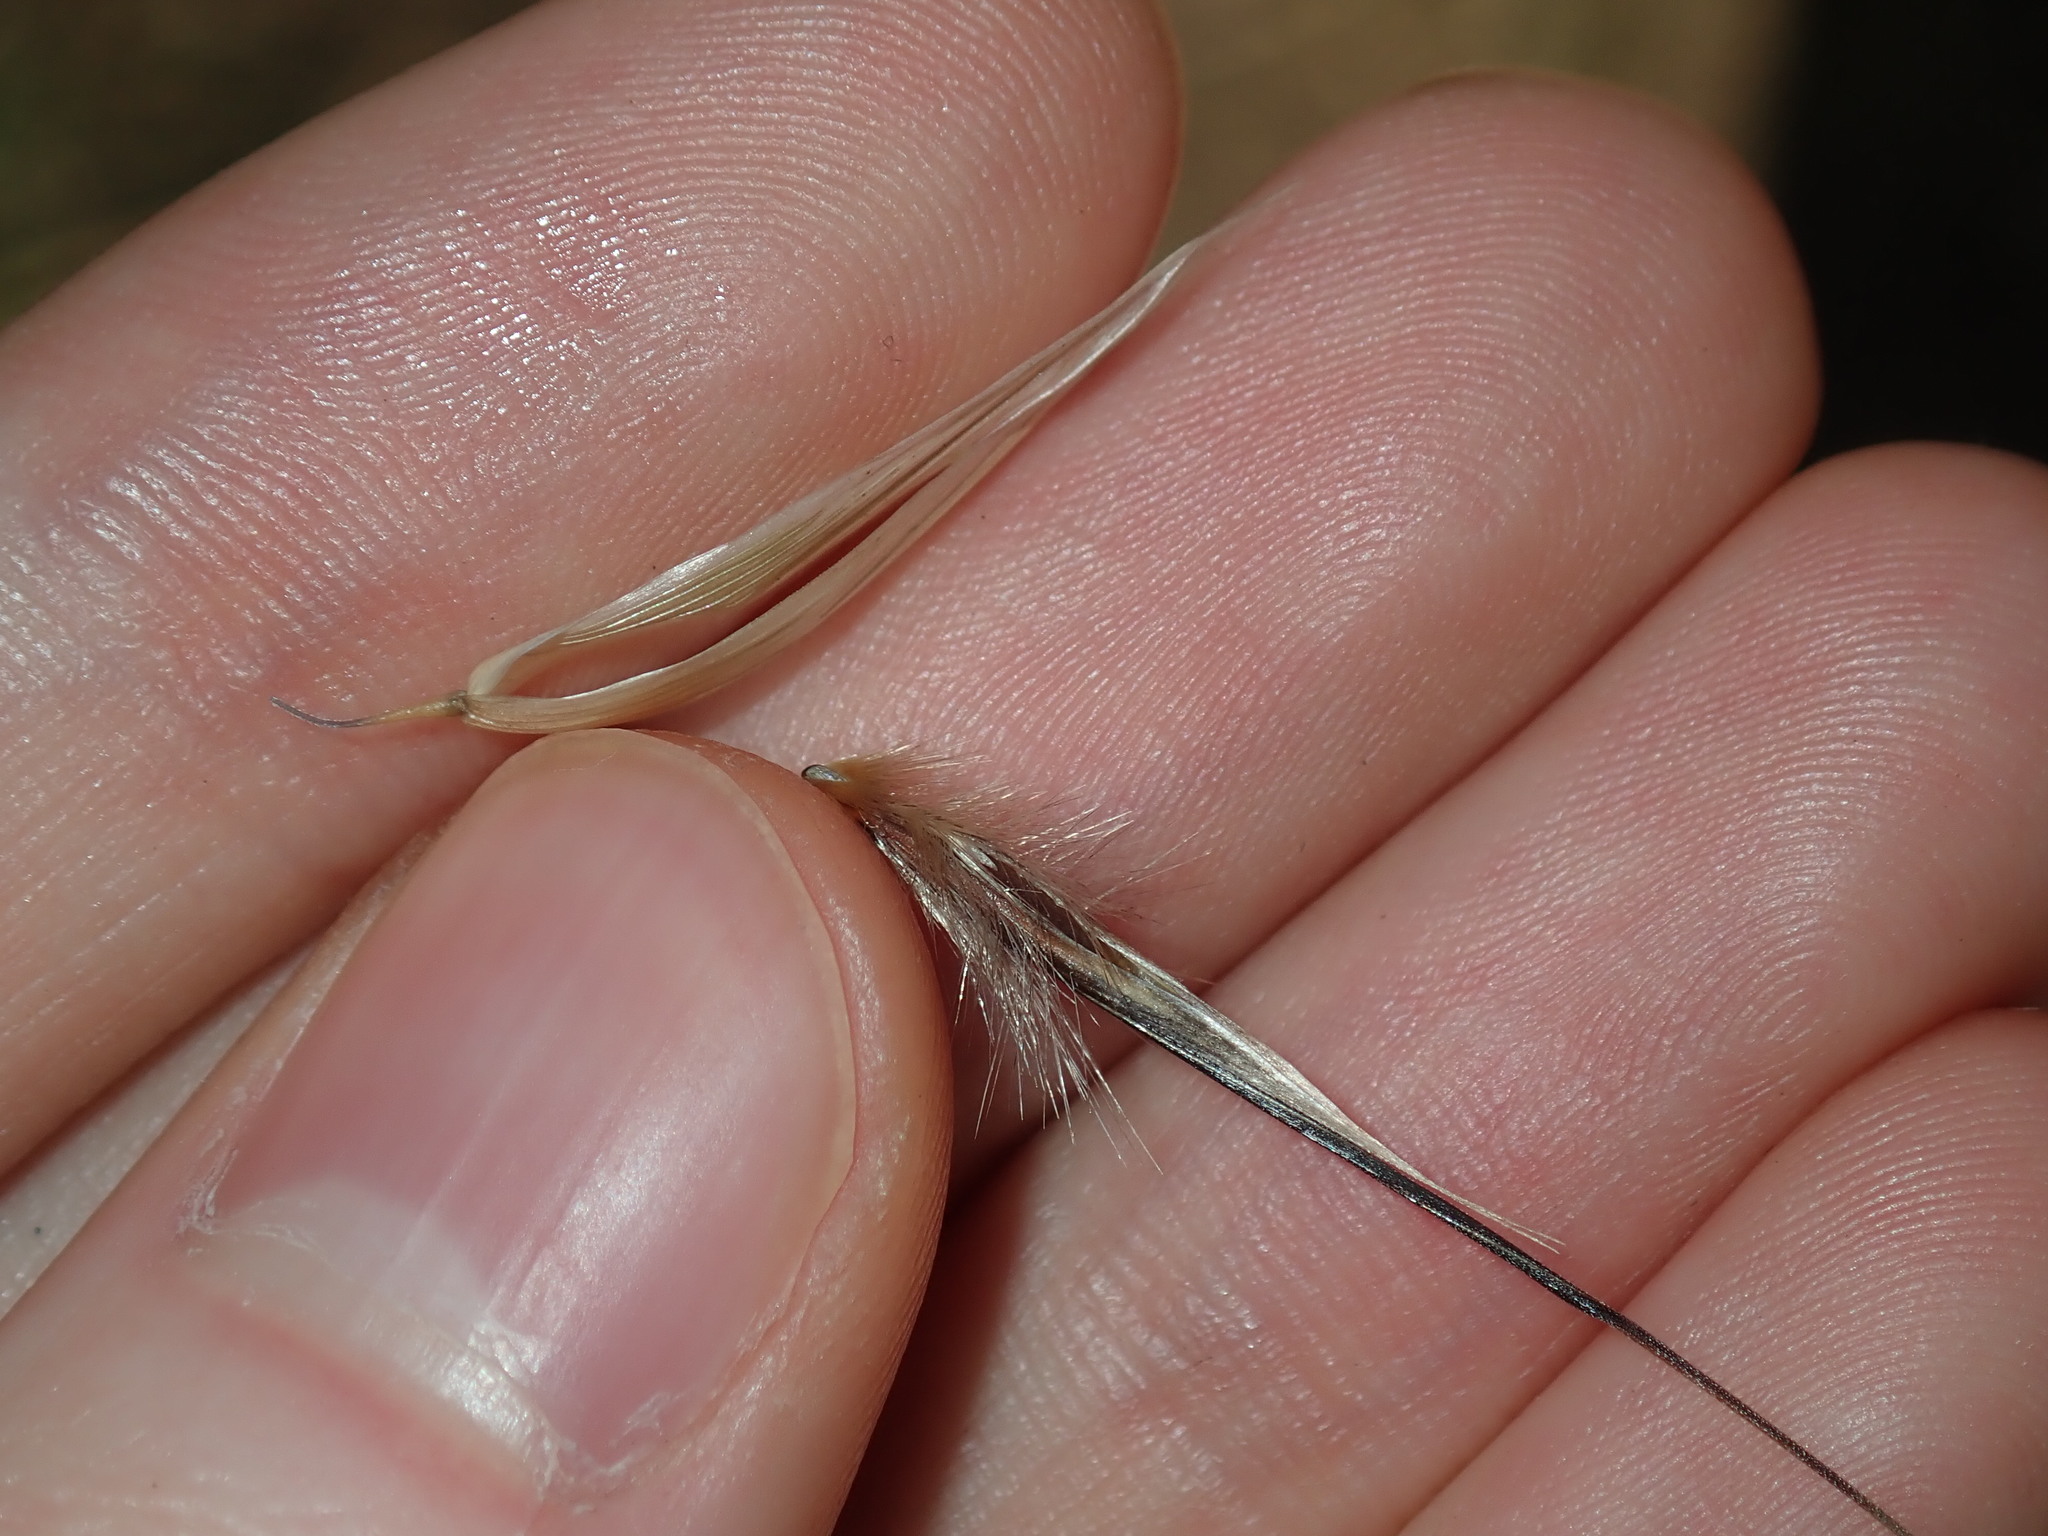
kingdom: Plantae
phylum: Tracheophyta
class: Liliopsida
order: Poales
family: Poaceae
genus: Avena
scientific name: Avena barbata
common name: Slender oat
